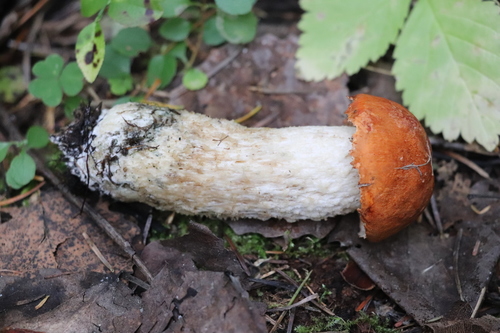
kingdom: Fungi
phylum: Basidiomycota
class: Agaricomycetes
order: Boletales
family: Boletaceae
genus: Leccinum
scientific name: Leccinum albostipitatum
